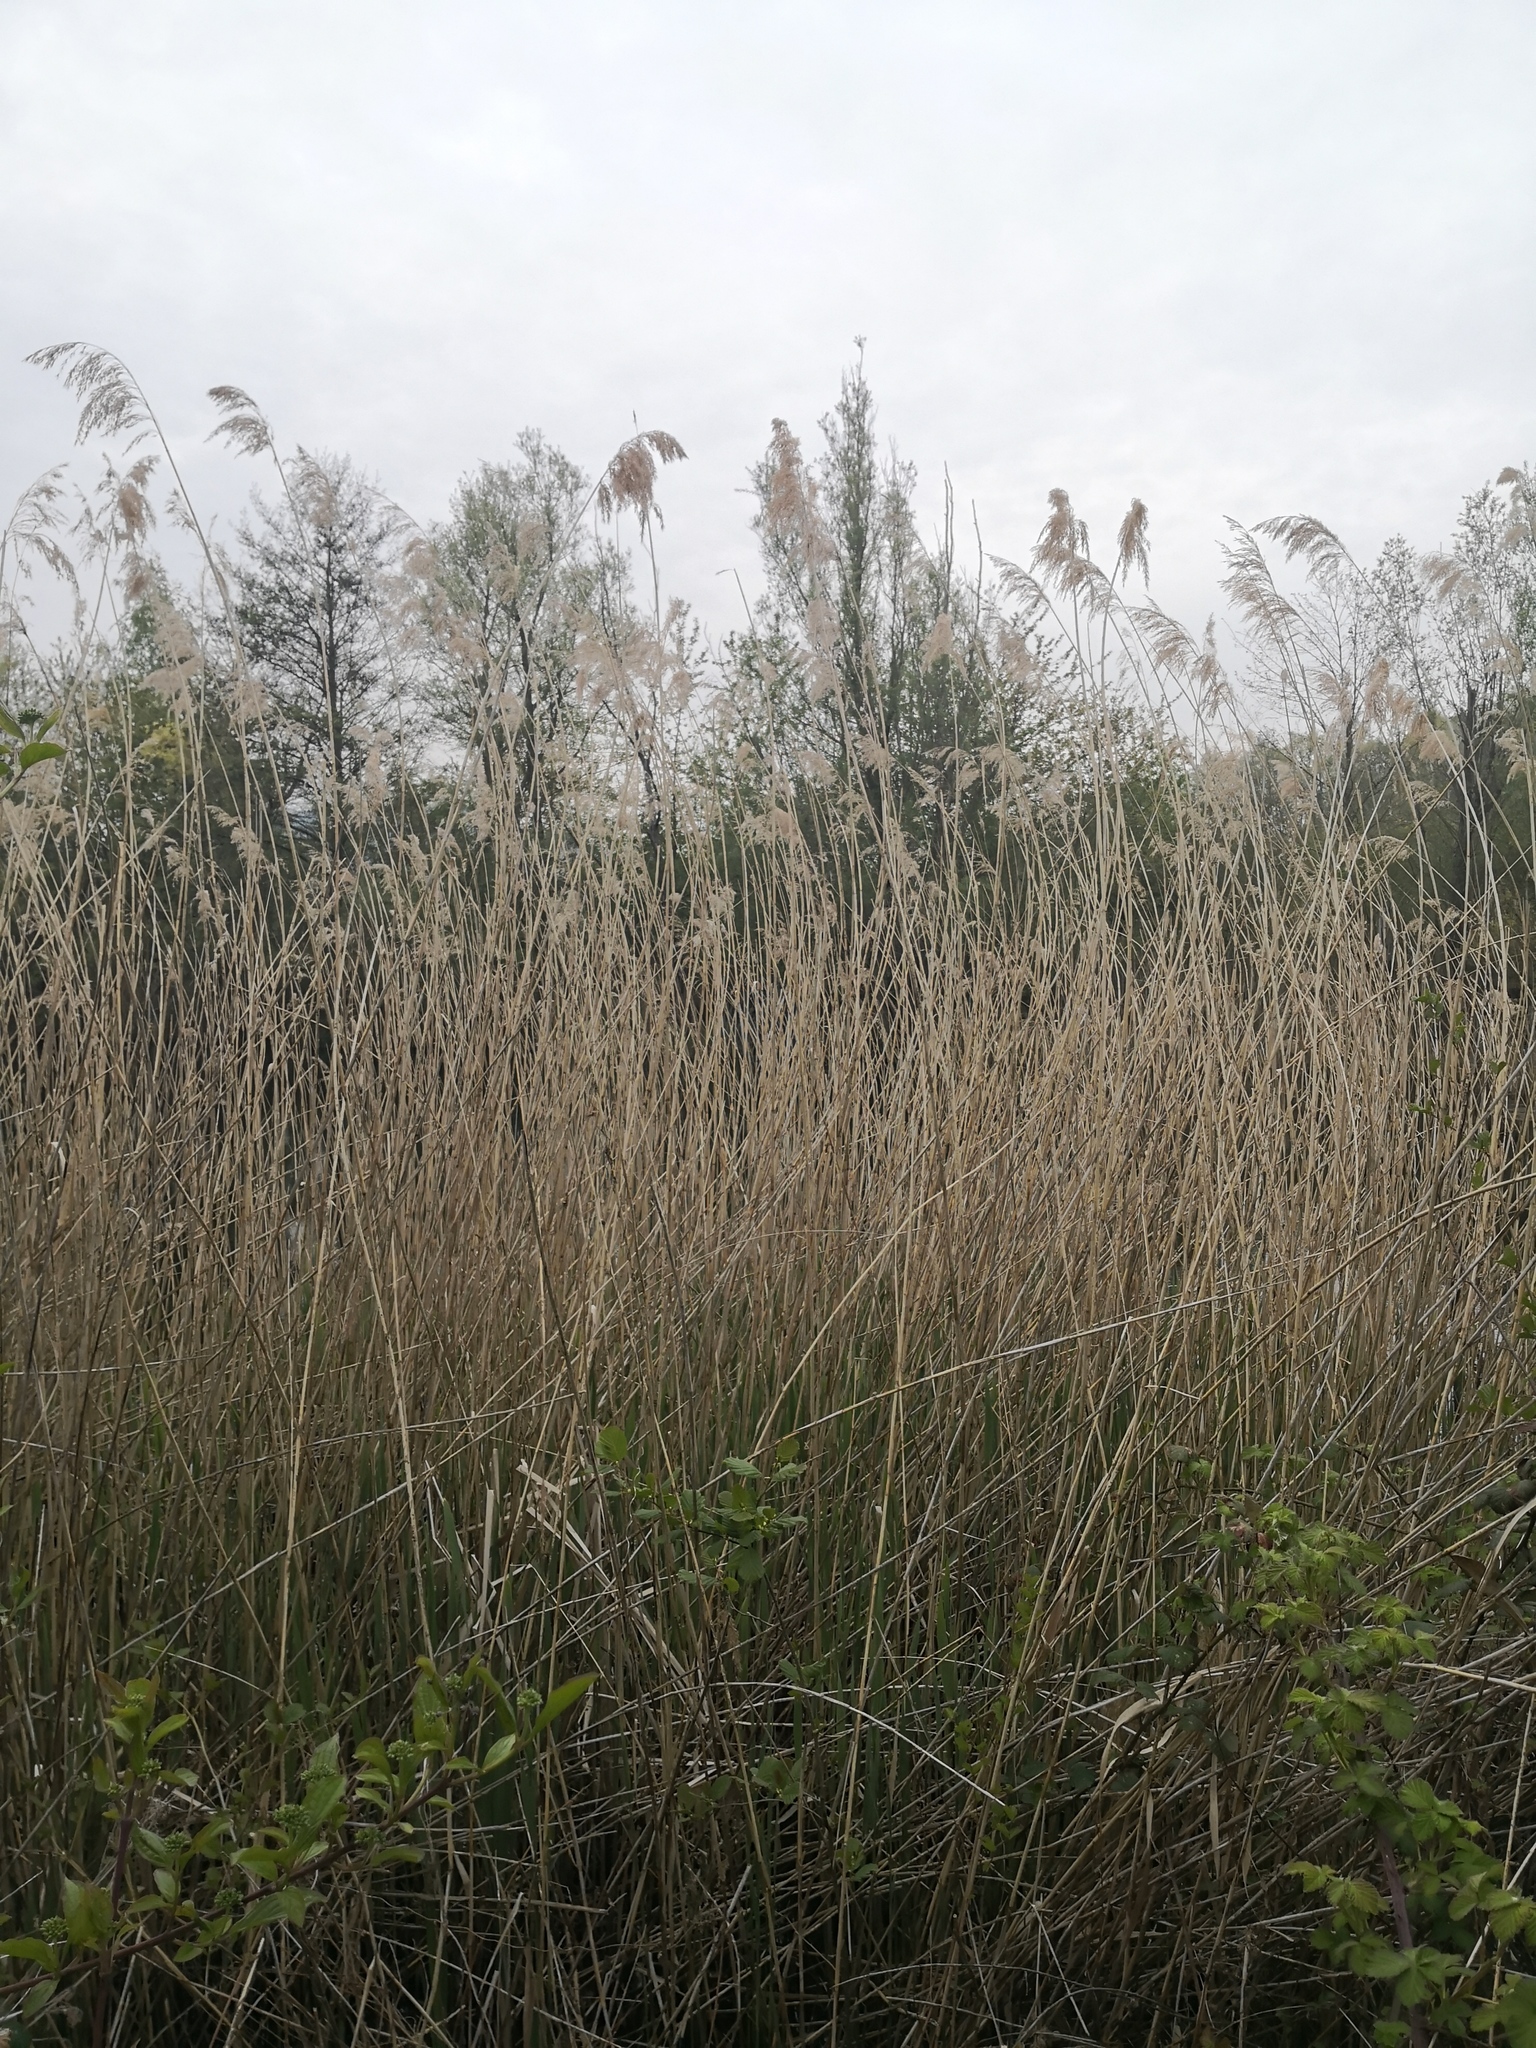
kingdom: Plantae
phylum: Tracheophyta
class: Liliopsida
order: Poales
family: Poaceae
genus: Phragmites
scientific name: Phragmites australis
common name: Common reed
